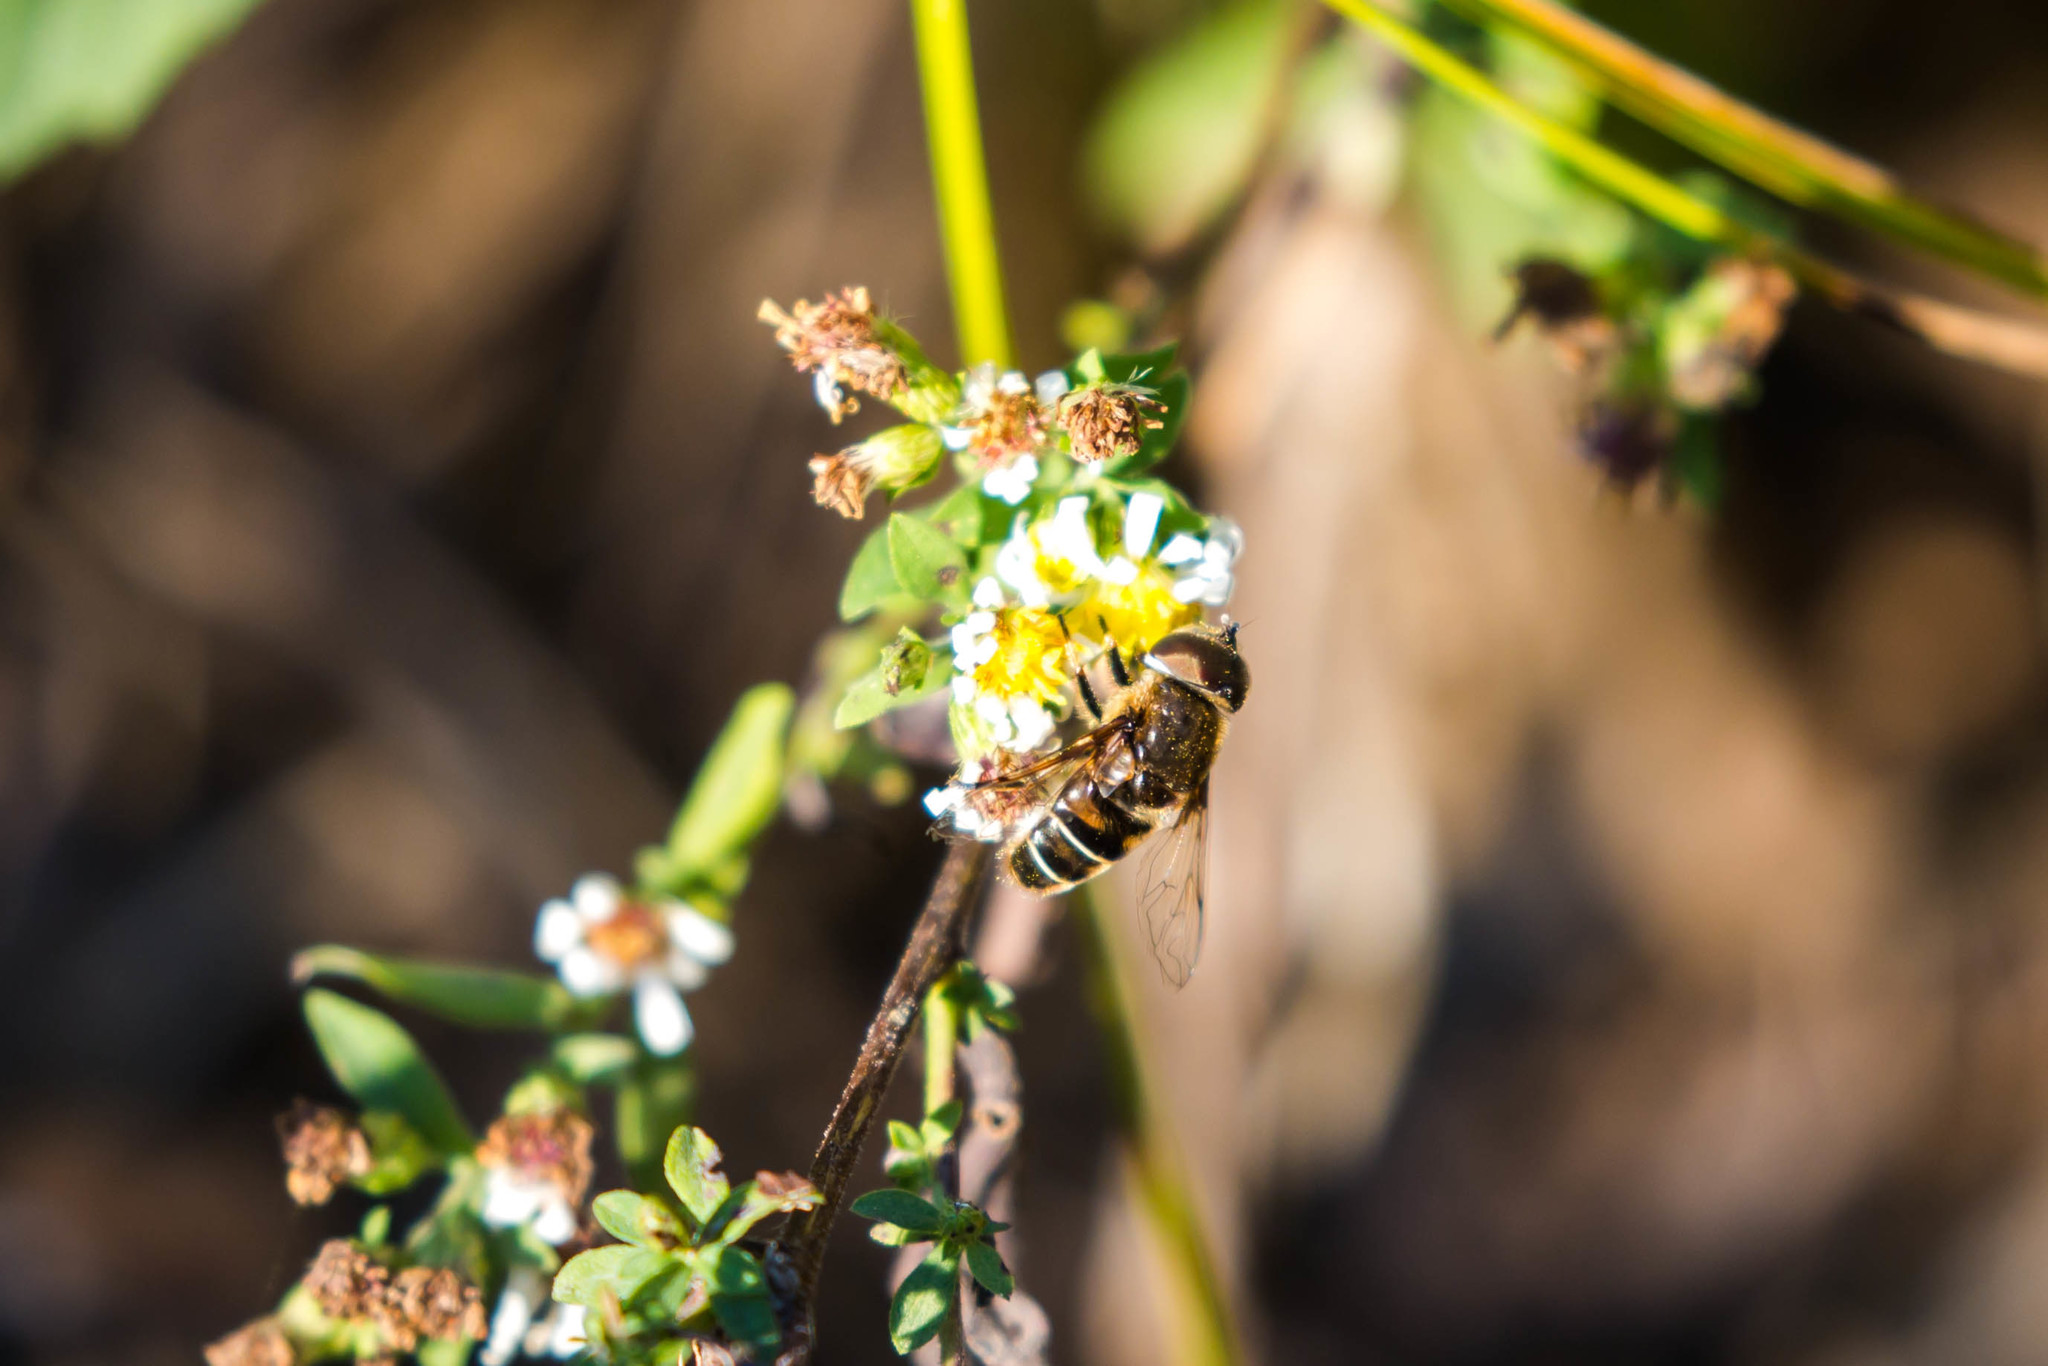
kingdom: Animalia
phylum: Arthropoda
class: Insecta
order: Diptera
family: Syrphidae
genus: Eristalis
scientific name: Eristalis dimidiata
